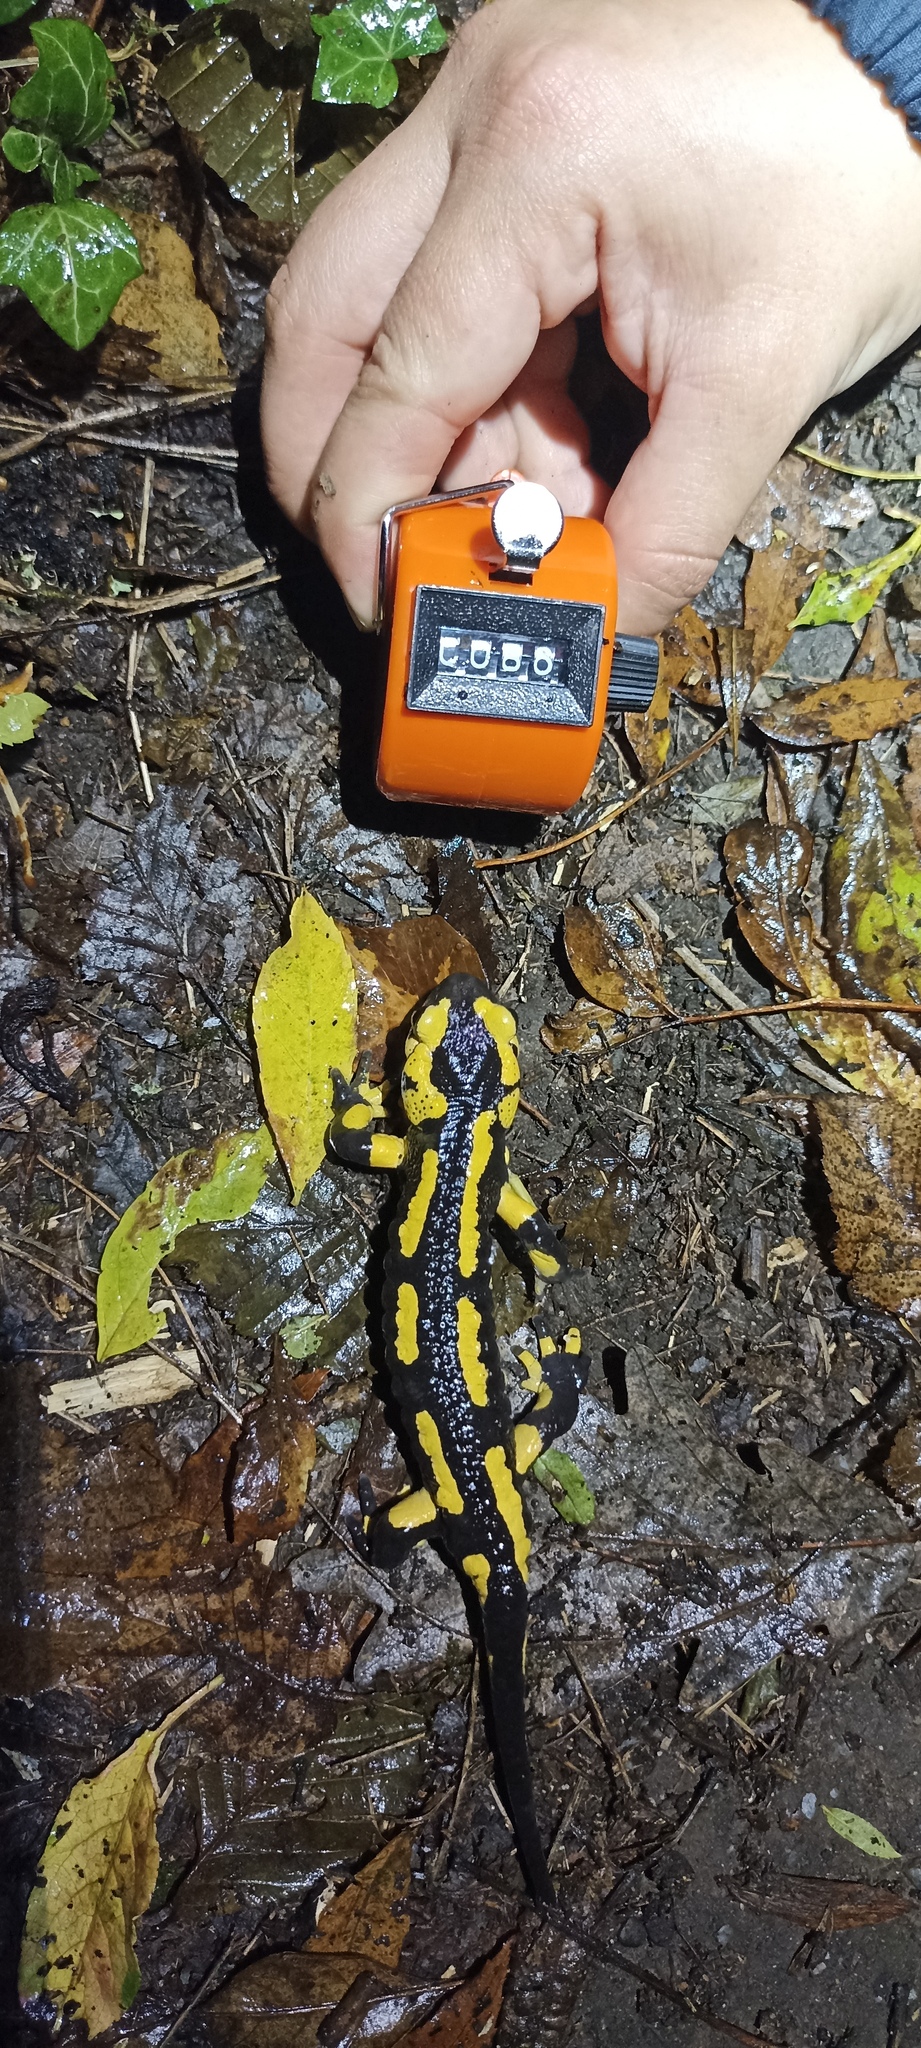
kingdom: Animalia
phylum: Chordata
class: Amphibia
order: Caudata
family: Salamandridae
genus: Salamandra
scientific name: Salamandra salamandra
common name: Fire salamander
